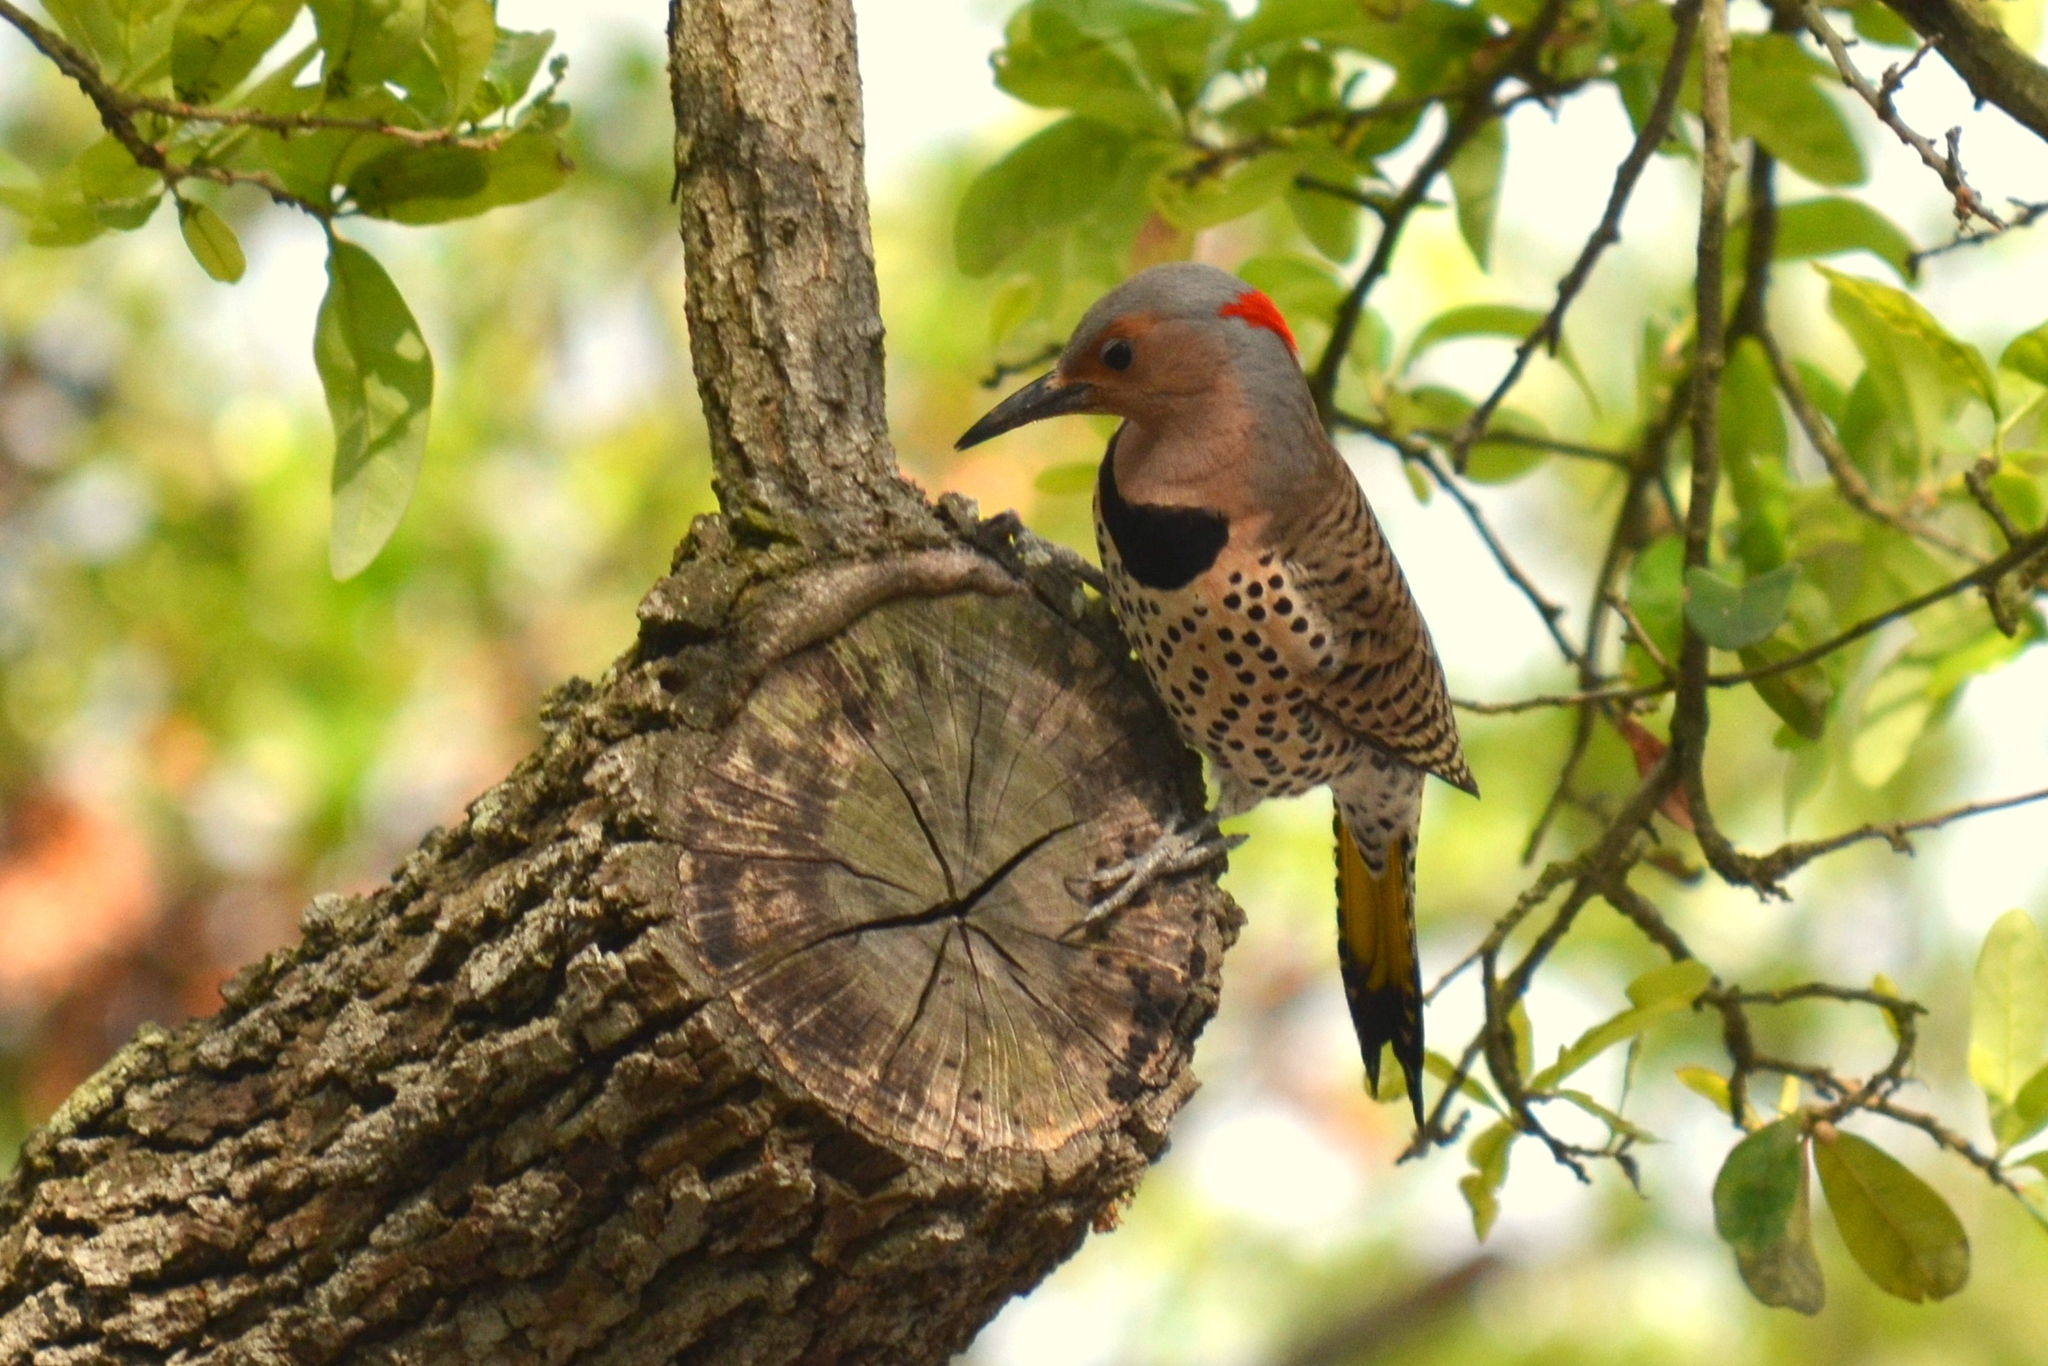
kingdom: Animalia
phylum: Chordata
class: Aves
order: Piciformes
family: Picidae
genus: Colaptes
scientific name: Colaptes auratus
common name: Northern flicker
